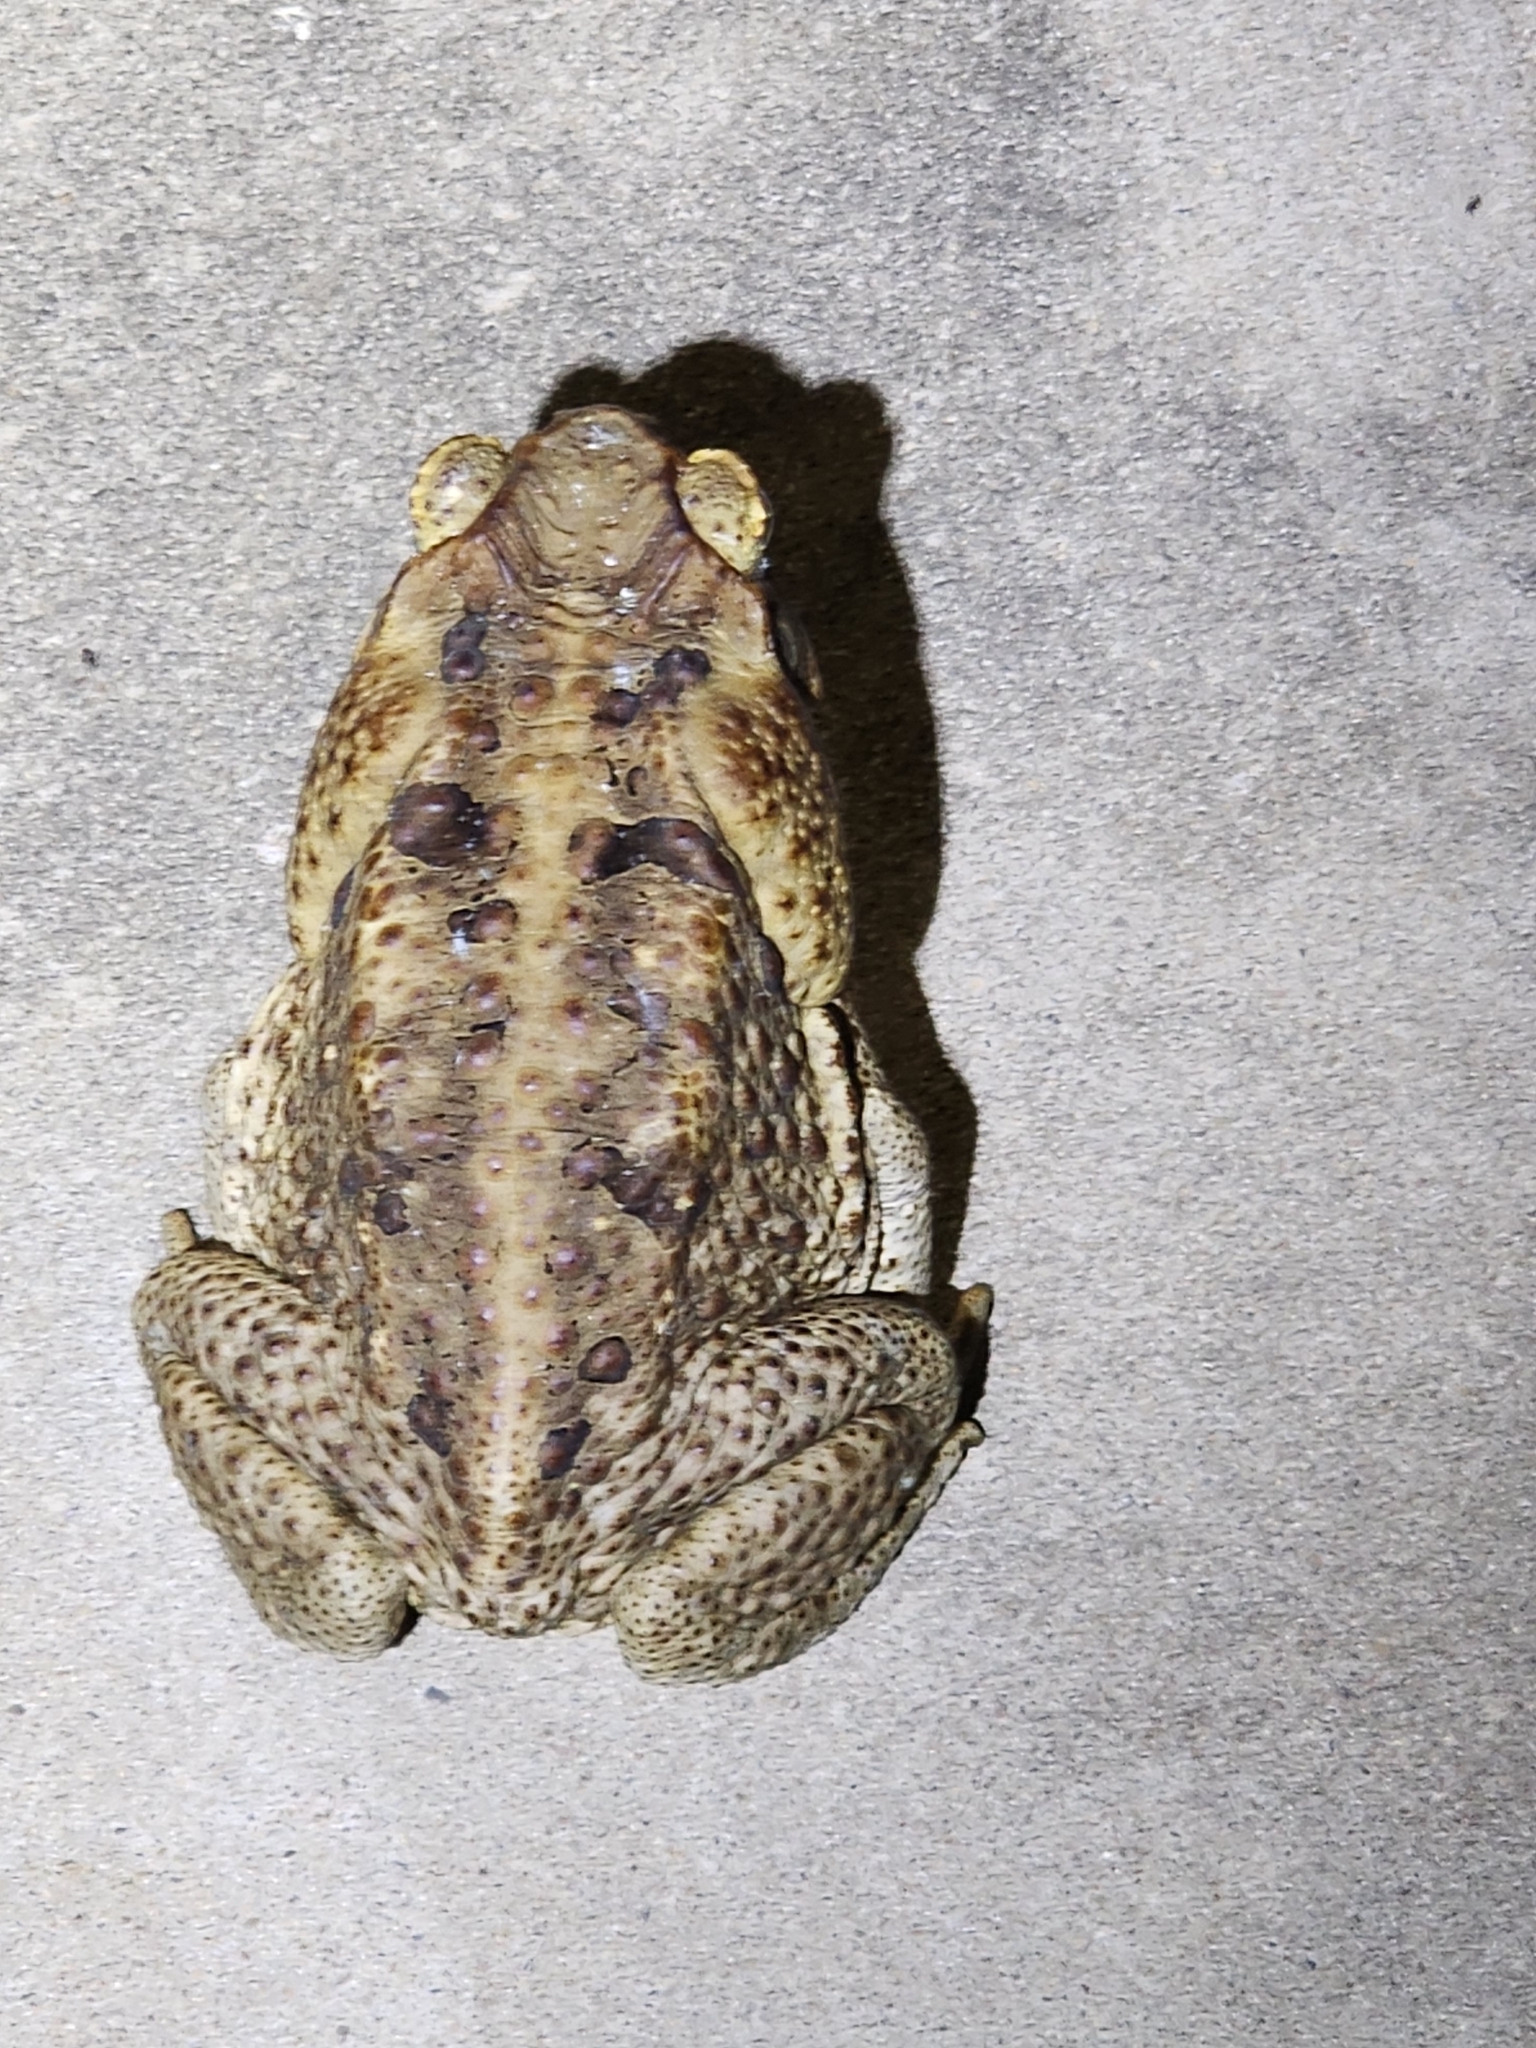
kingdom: Animalia
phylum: Chordata
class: Amphibia
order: Anura
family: Bufonidae
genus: Rhinella
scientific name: Rhinella marina
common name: Cane toad
